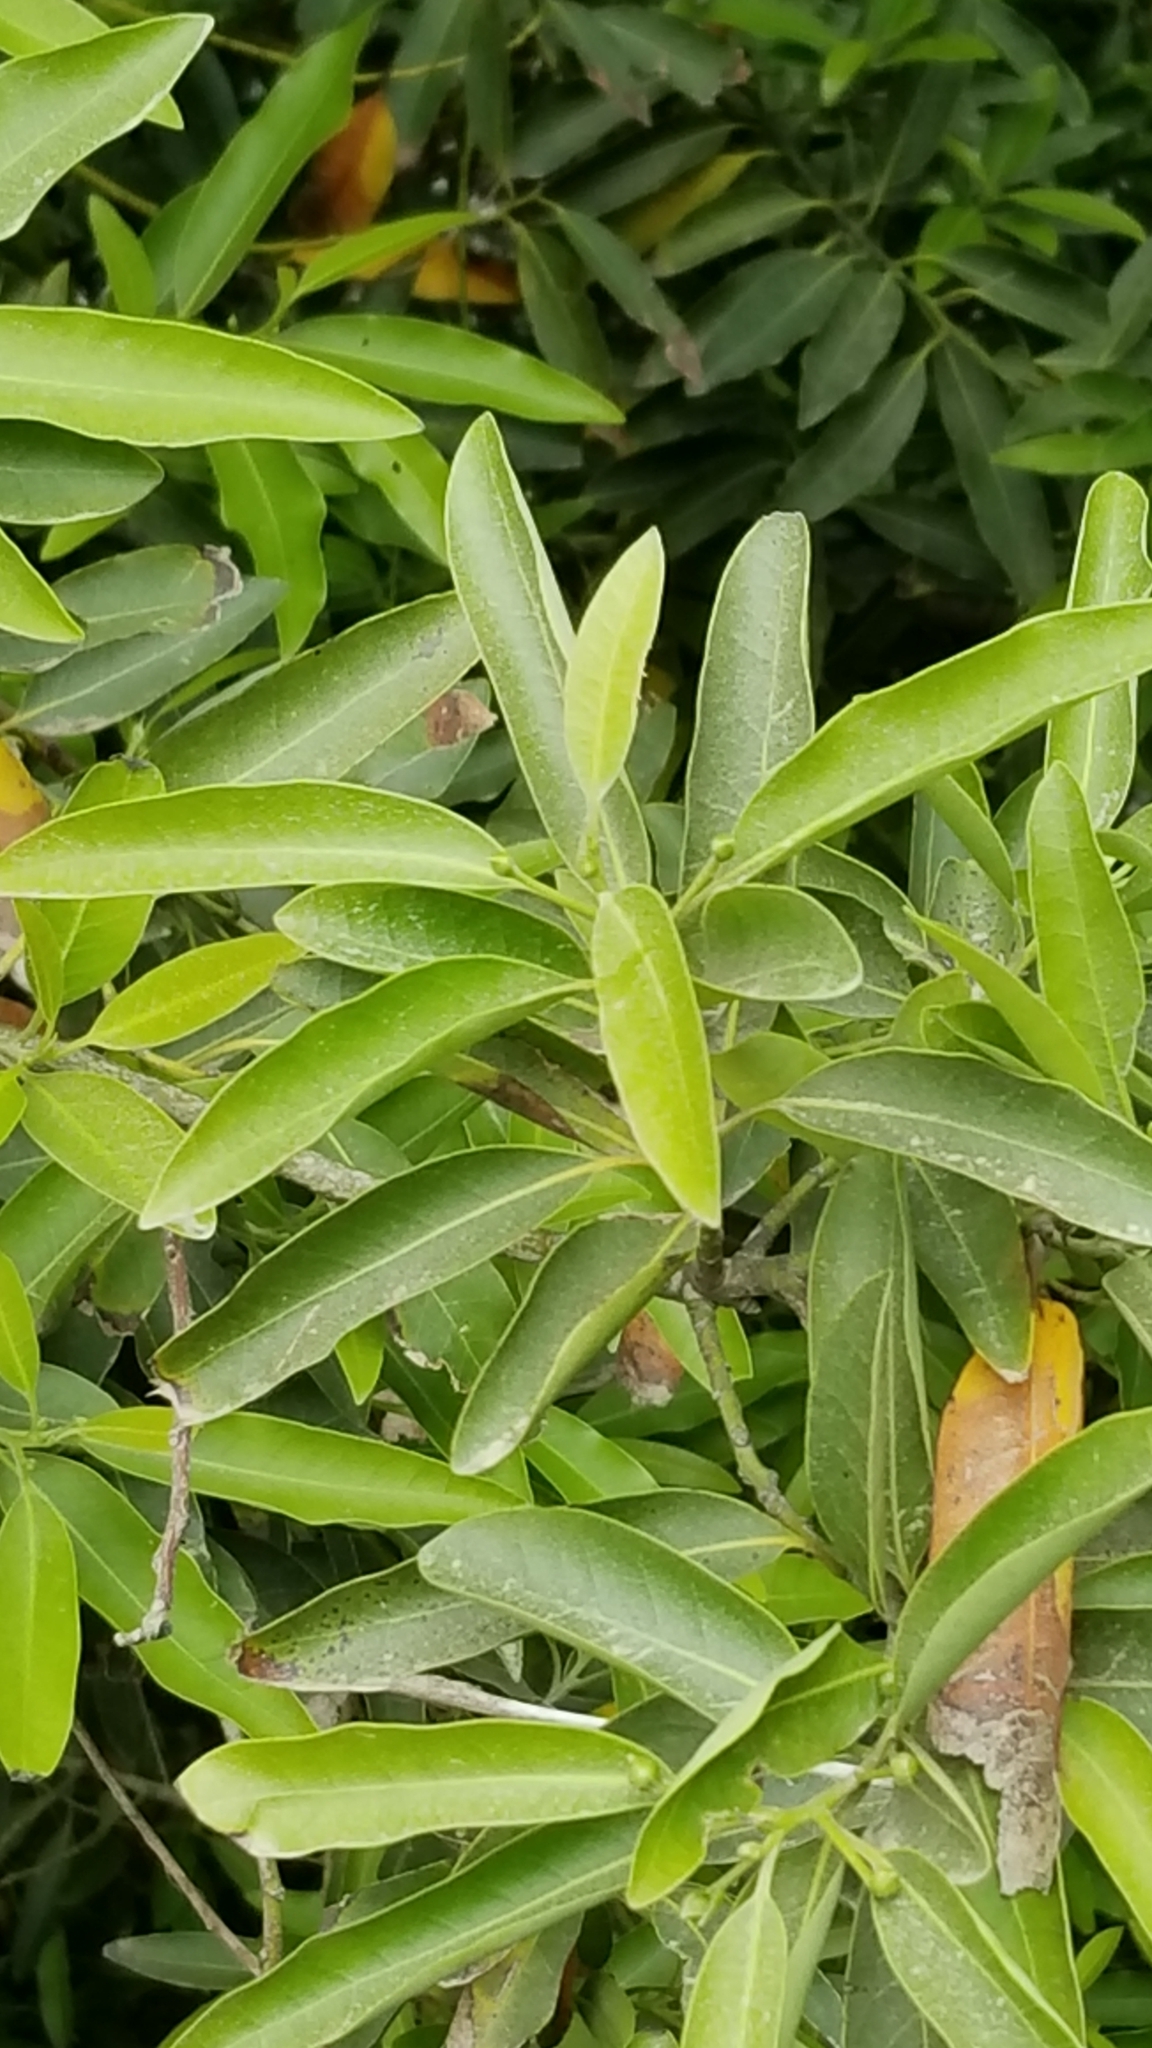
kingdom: Plantae
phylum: Tracheophyta
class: Magnoliopsida
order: Laurales
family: Lauraceae
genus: Umbellularia
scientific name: Umbellularia californica
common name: California bay
